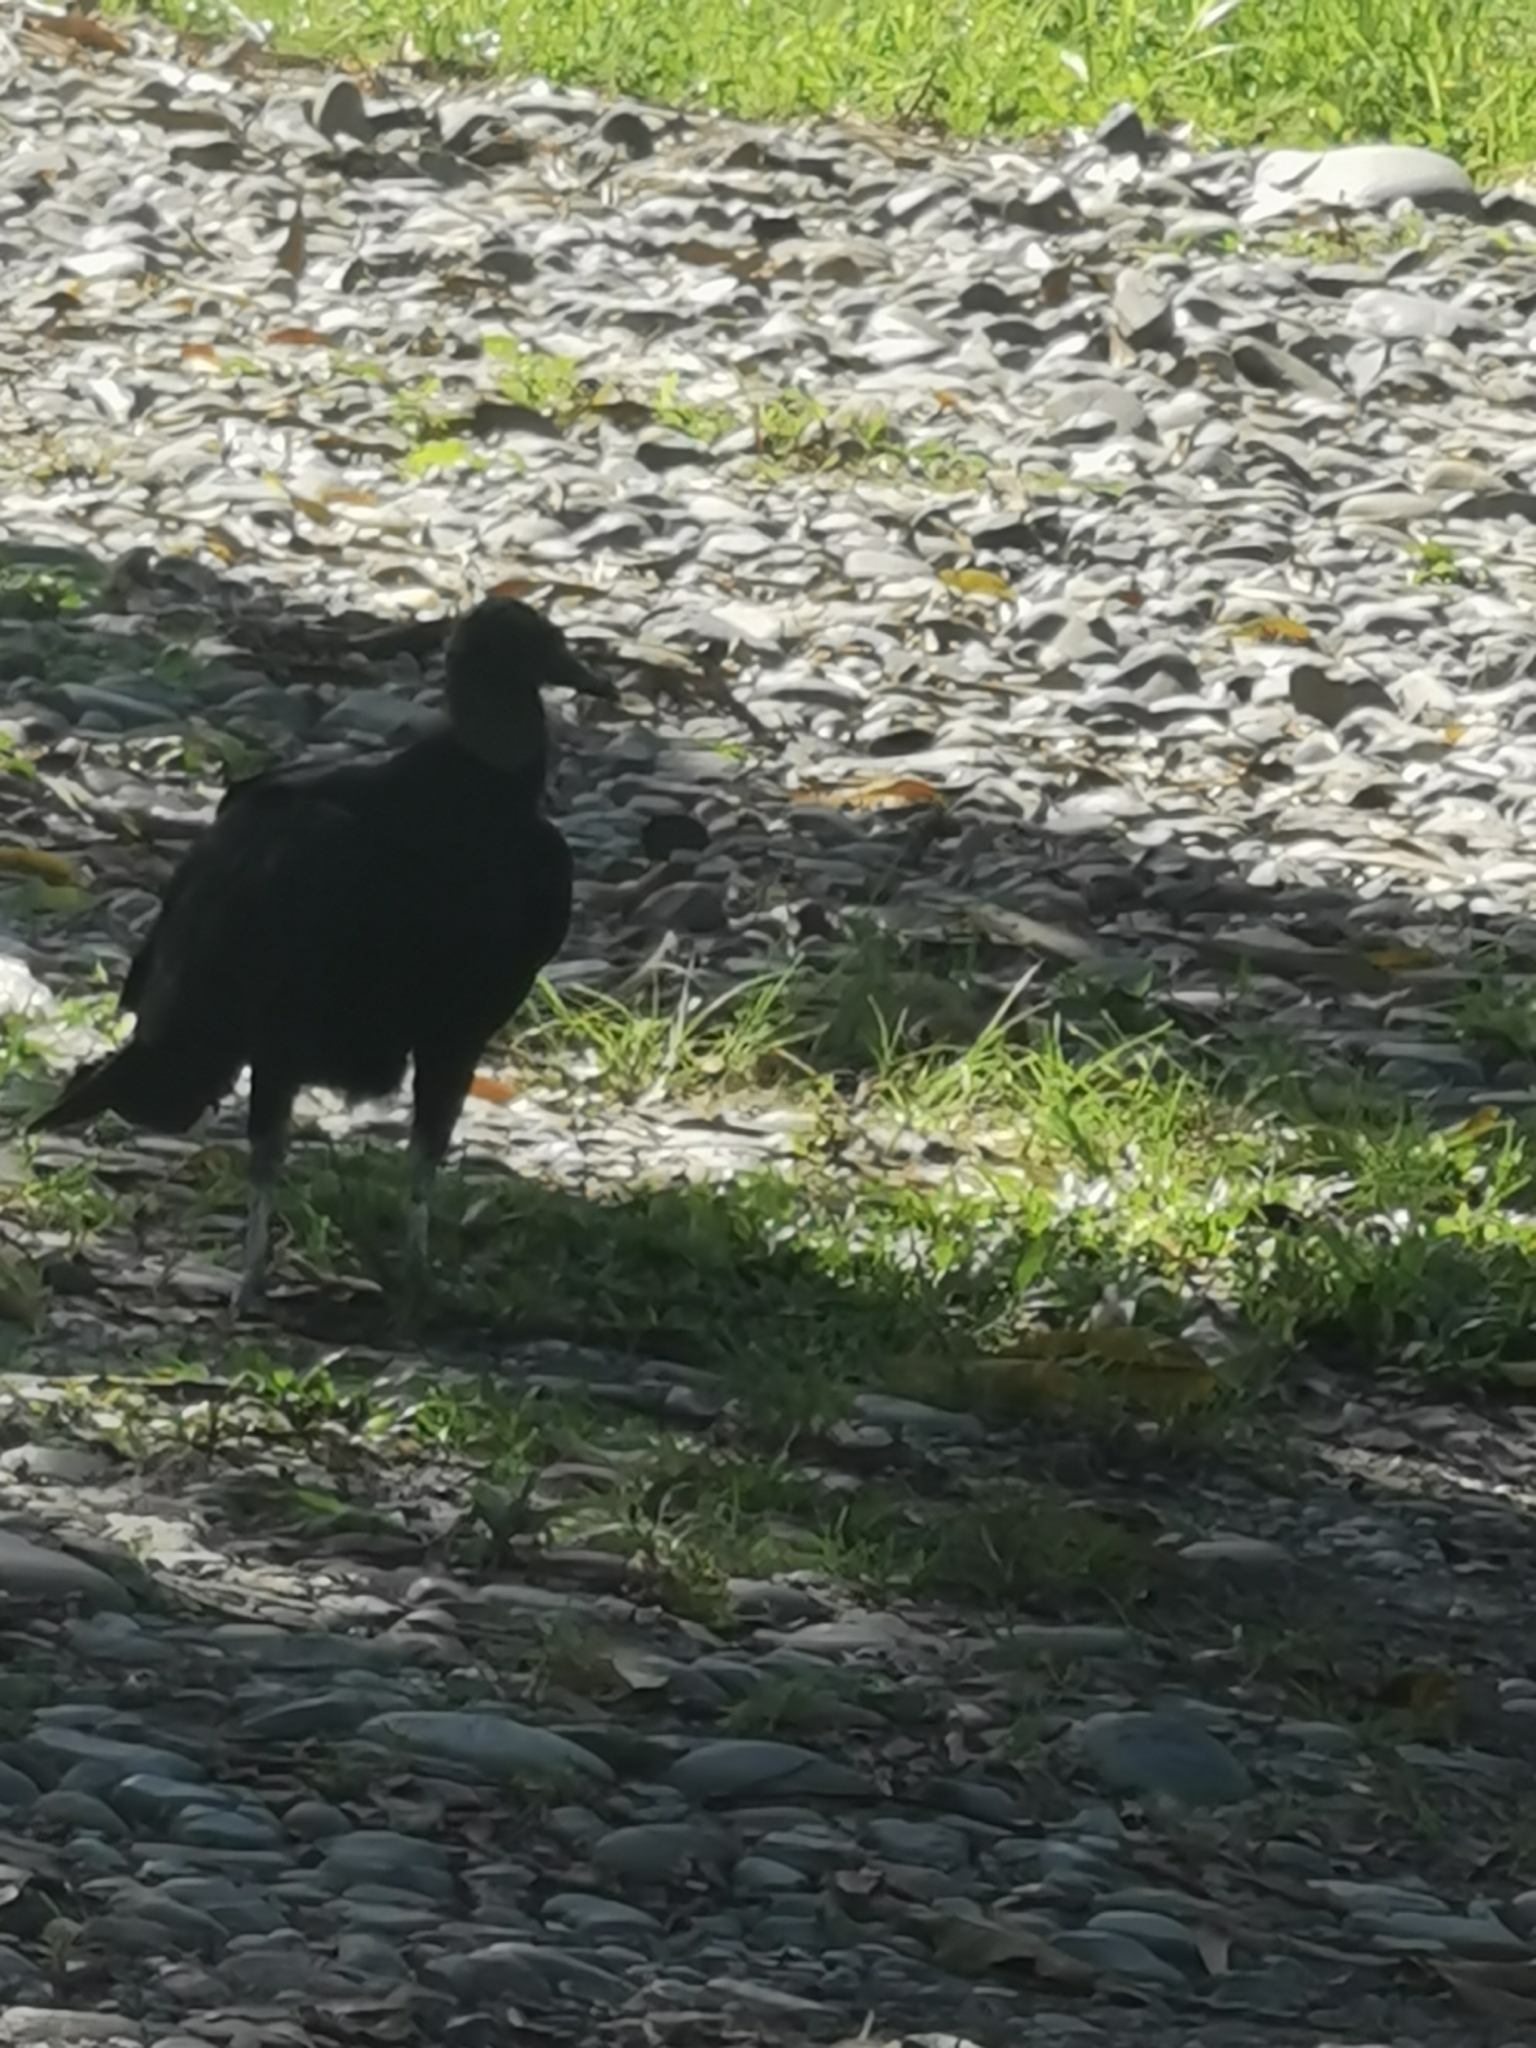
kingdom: Animalia
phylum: Chordata
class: Aves
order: Accipitriformes
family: Cathartidae
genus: Coragyps
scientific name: Coragyps atratus
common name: Black vulture
